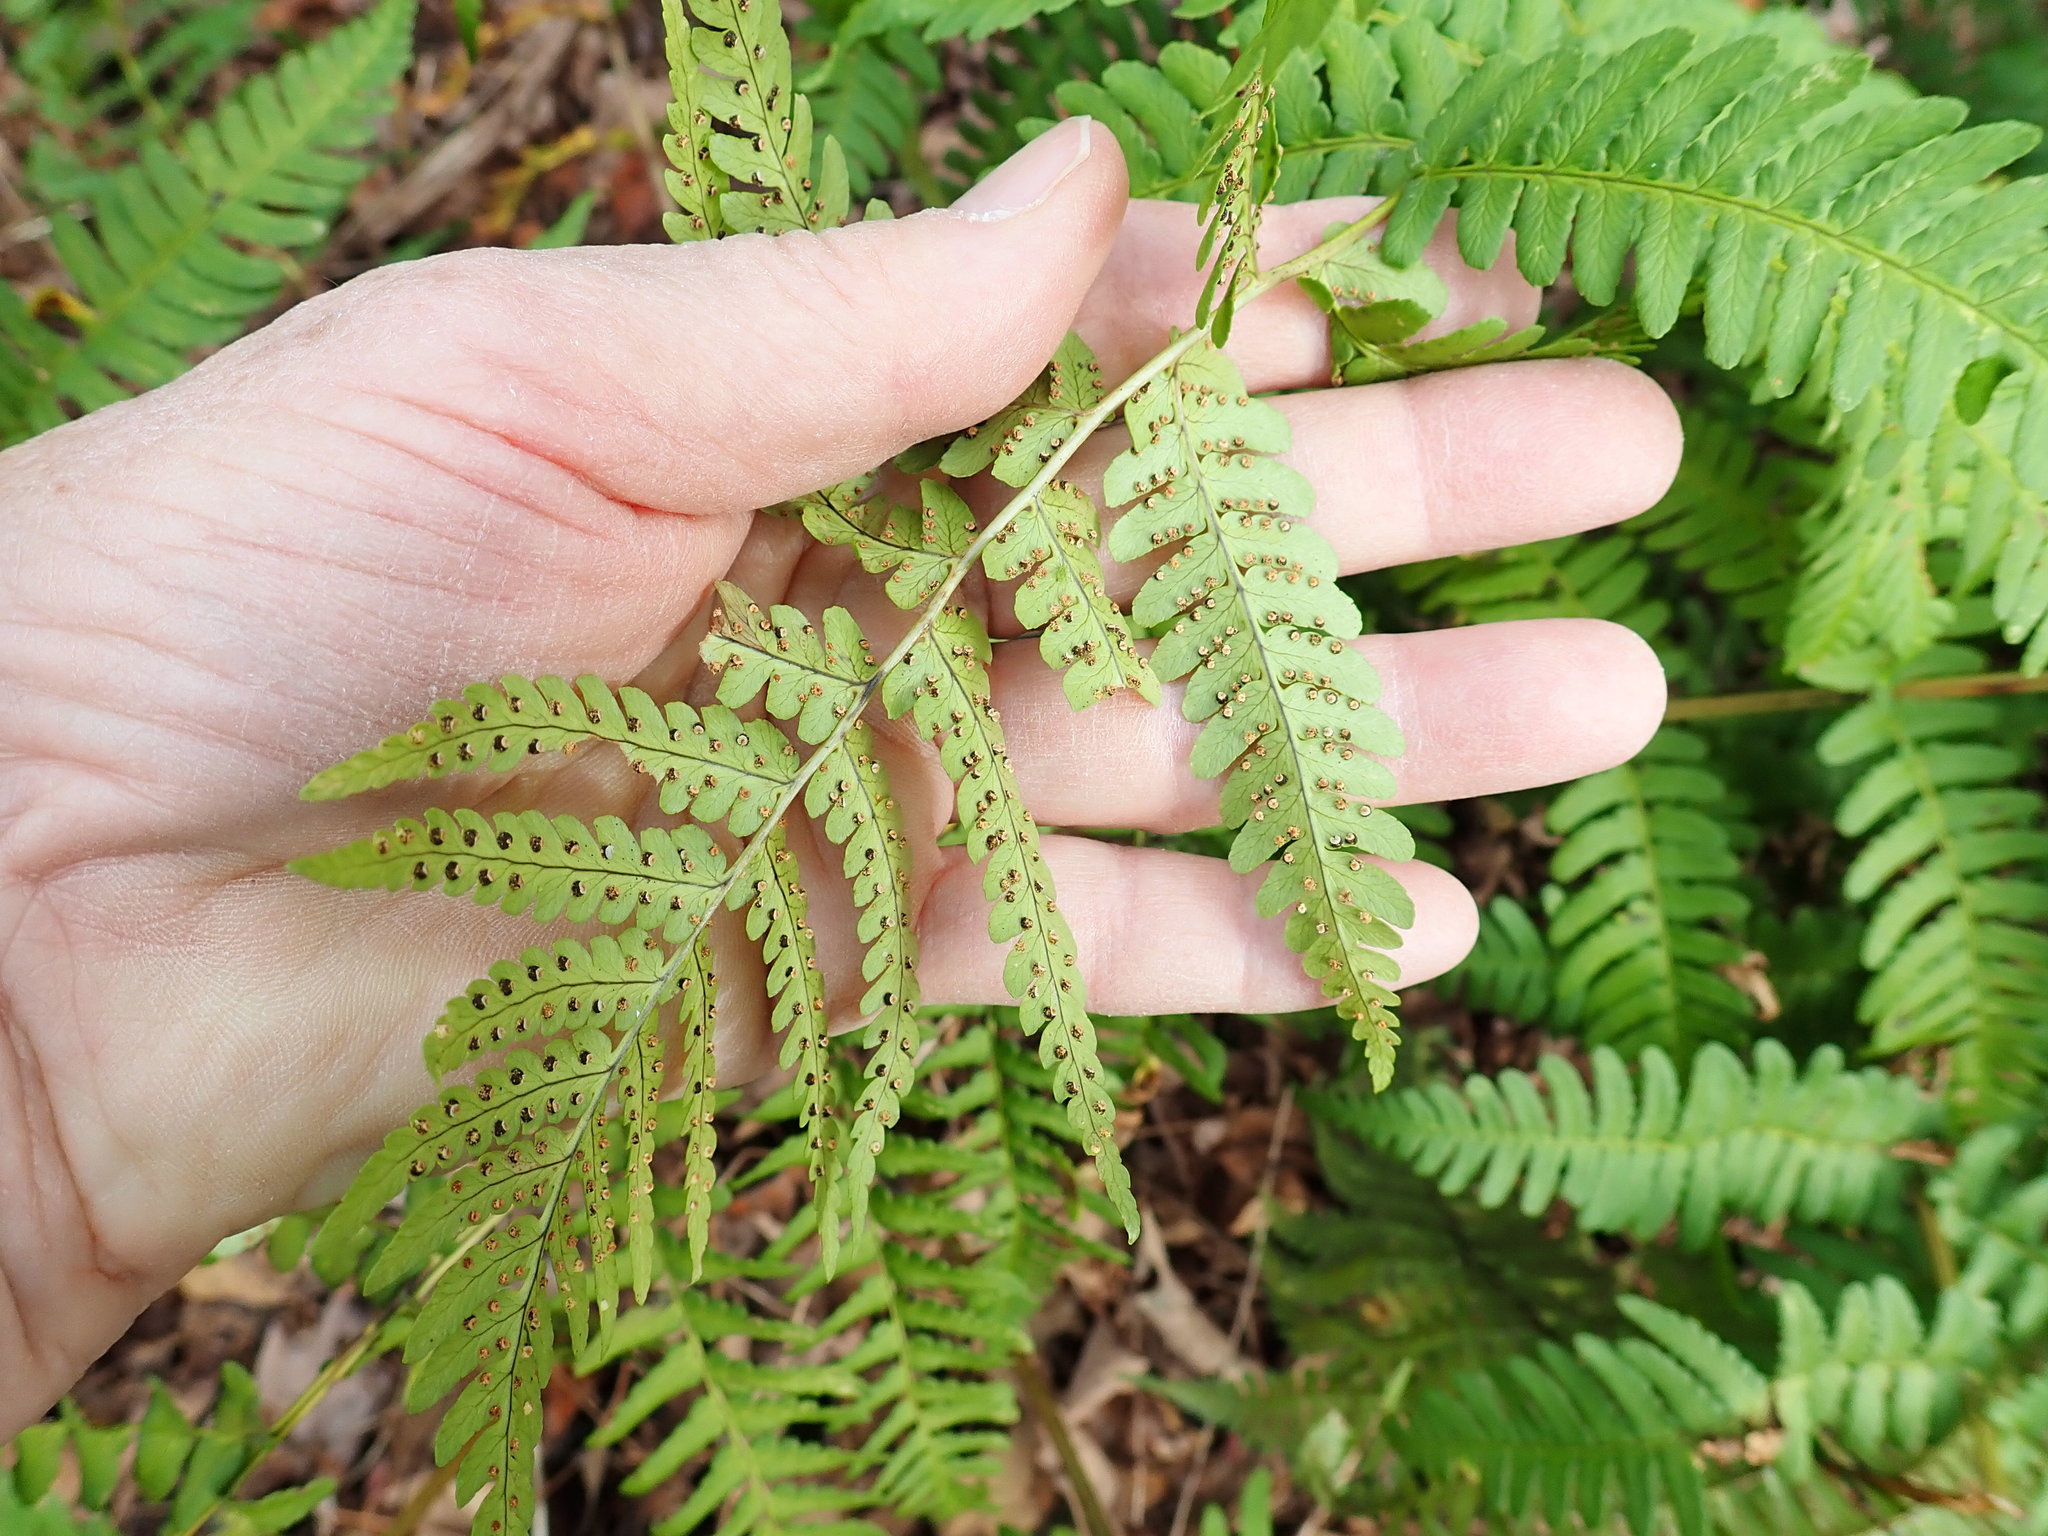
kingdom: Plantae
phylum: Tracheophyta
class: Polypodiopsida
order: Polypodiales
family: Dryopteridaceae
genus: Dryopteris
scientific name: Dryopteris marginalis
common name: Marginal wood fern
